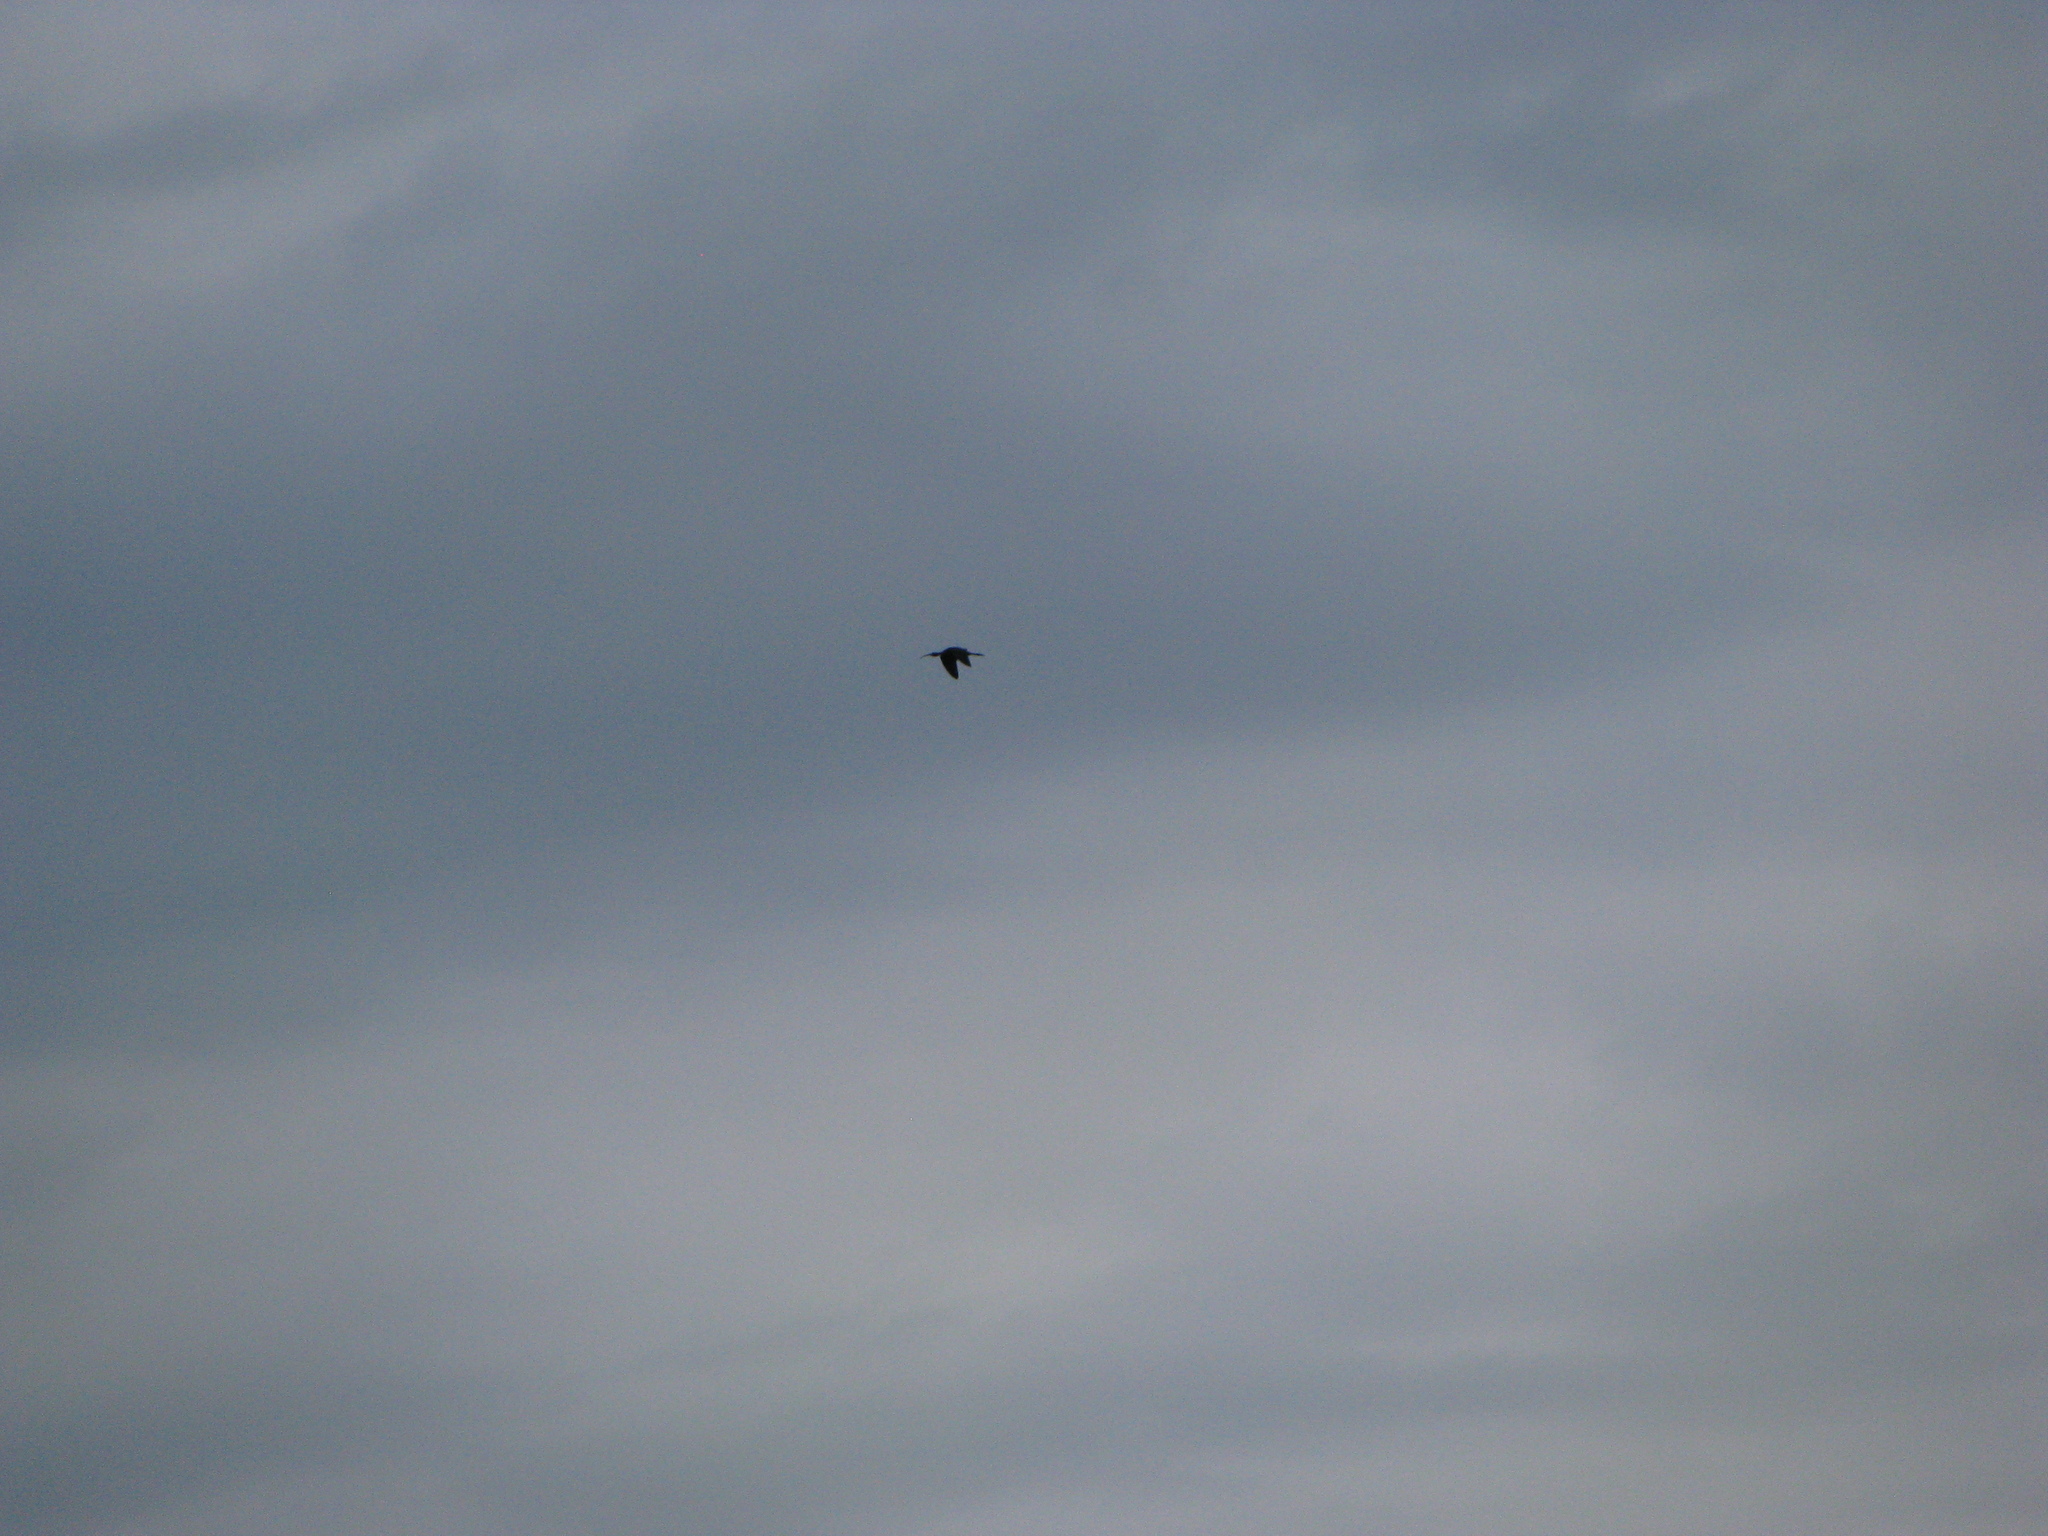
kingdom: Animalia
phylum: Chordata
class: Aves
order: Pelecaniformes
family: Threskiornithidae
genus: Plegadis
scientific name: Plegadis falcinellus
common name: Glossy ibis
